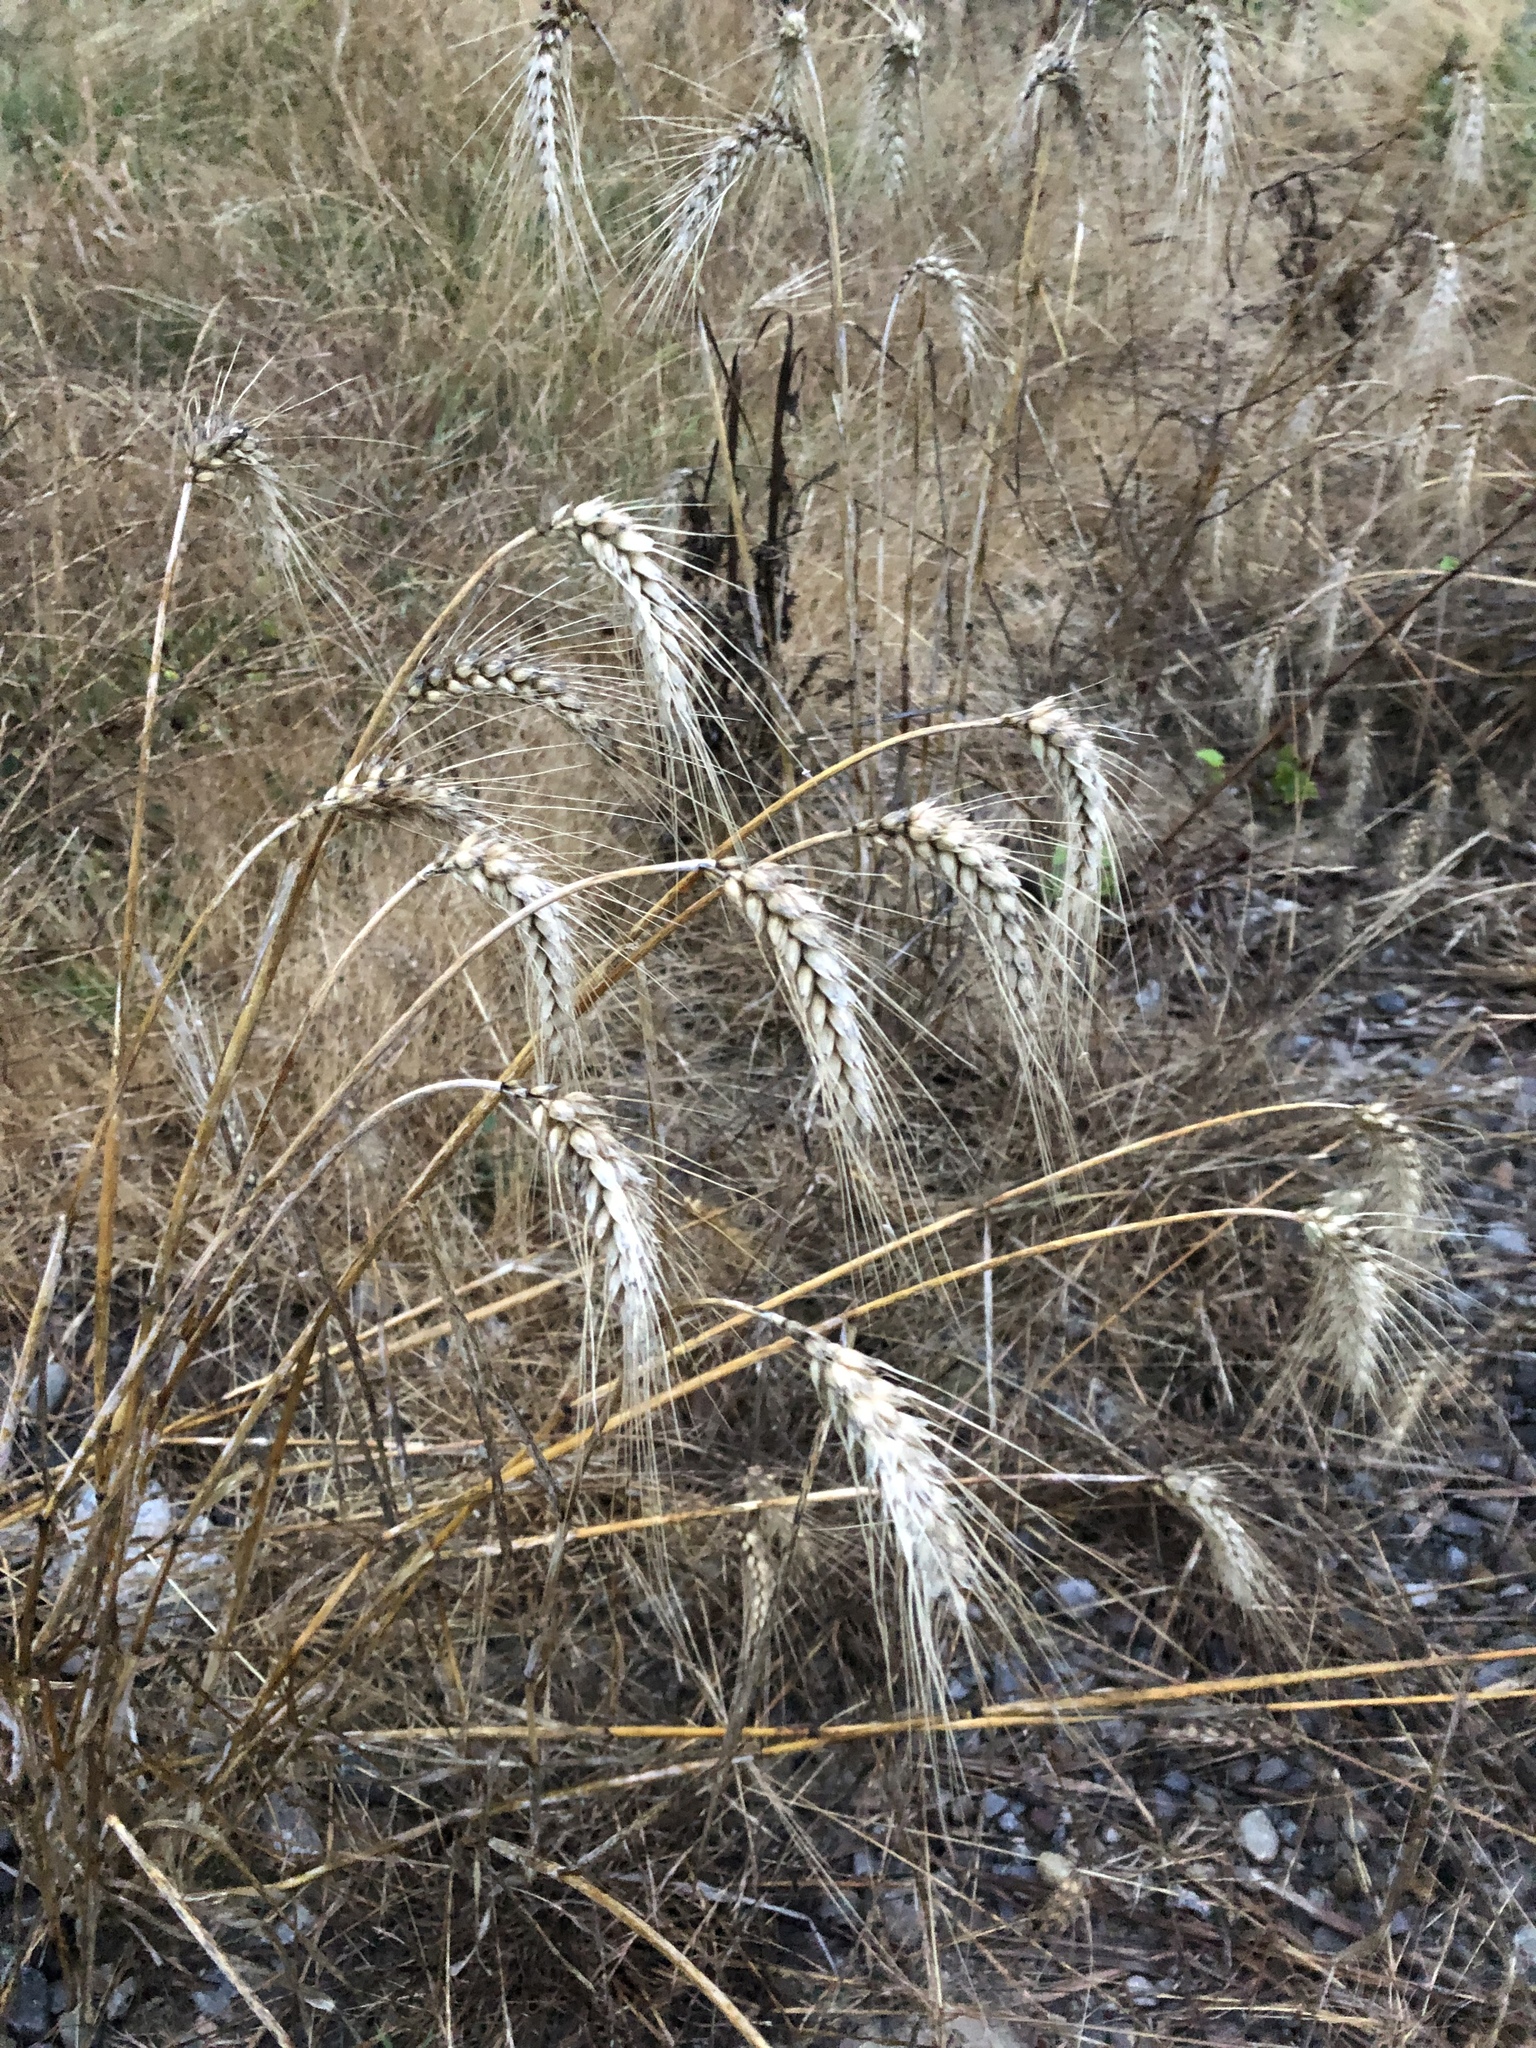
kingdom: Plantae
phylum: Tracheophyta
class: Liliopsida
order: Poales
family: Poaceae
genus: Triticum
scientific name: Triticum aestivum
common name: Common wheat
